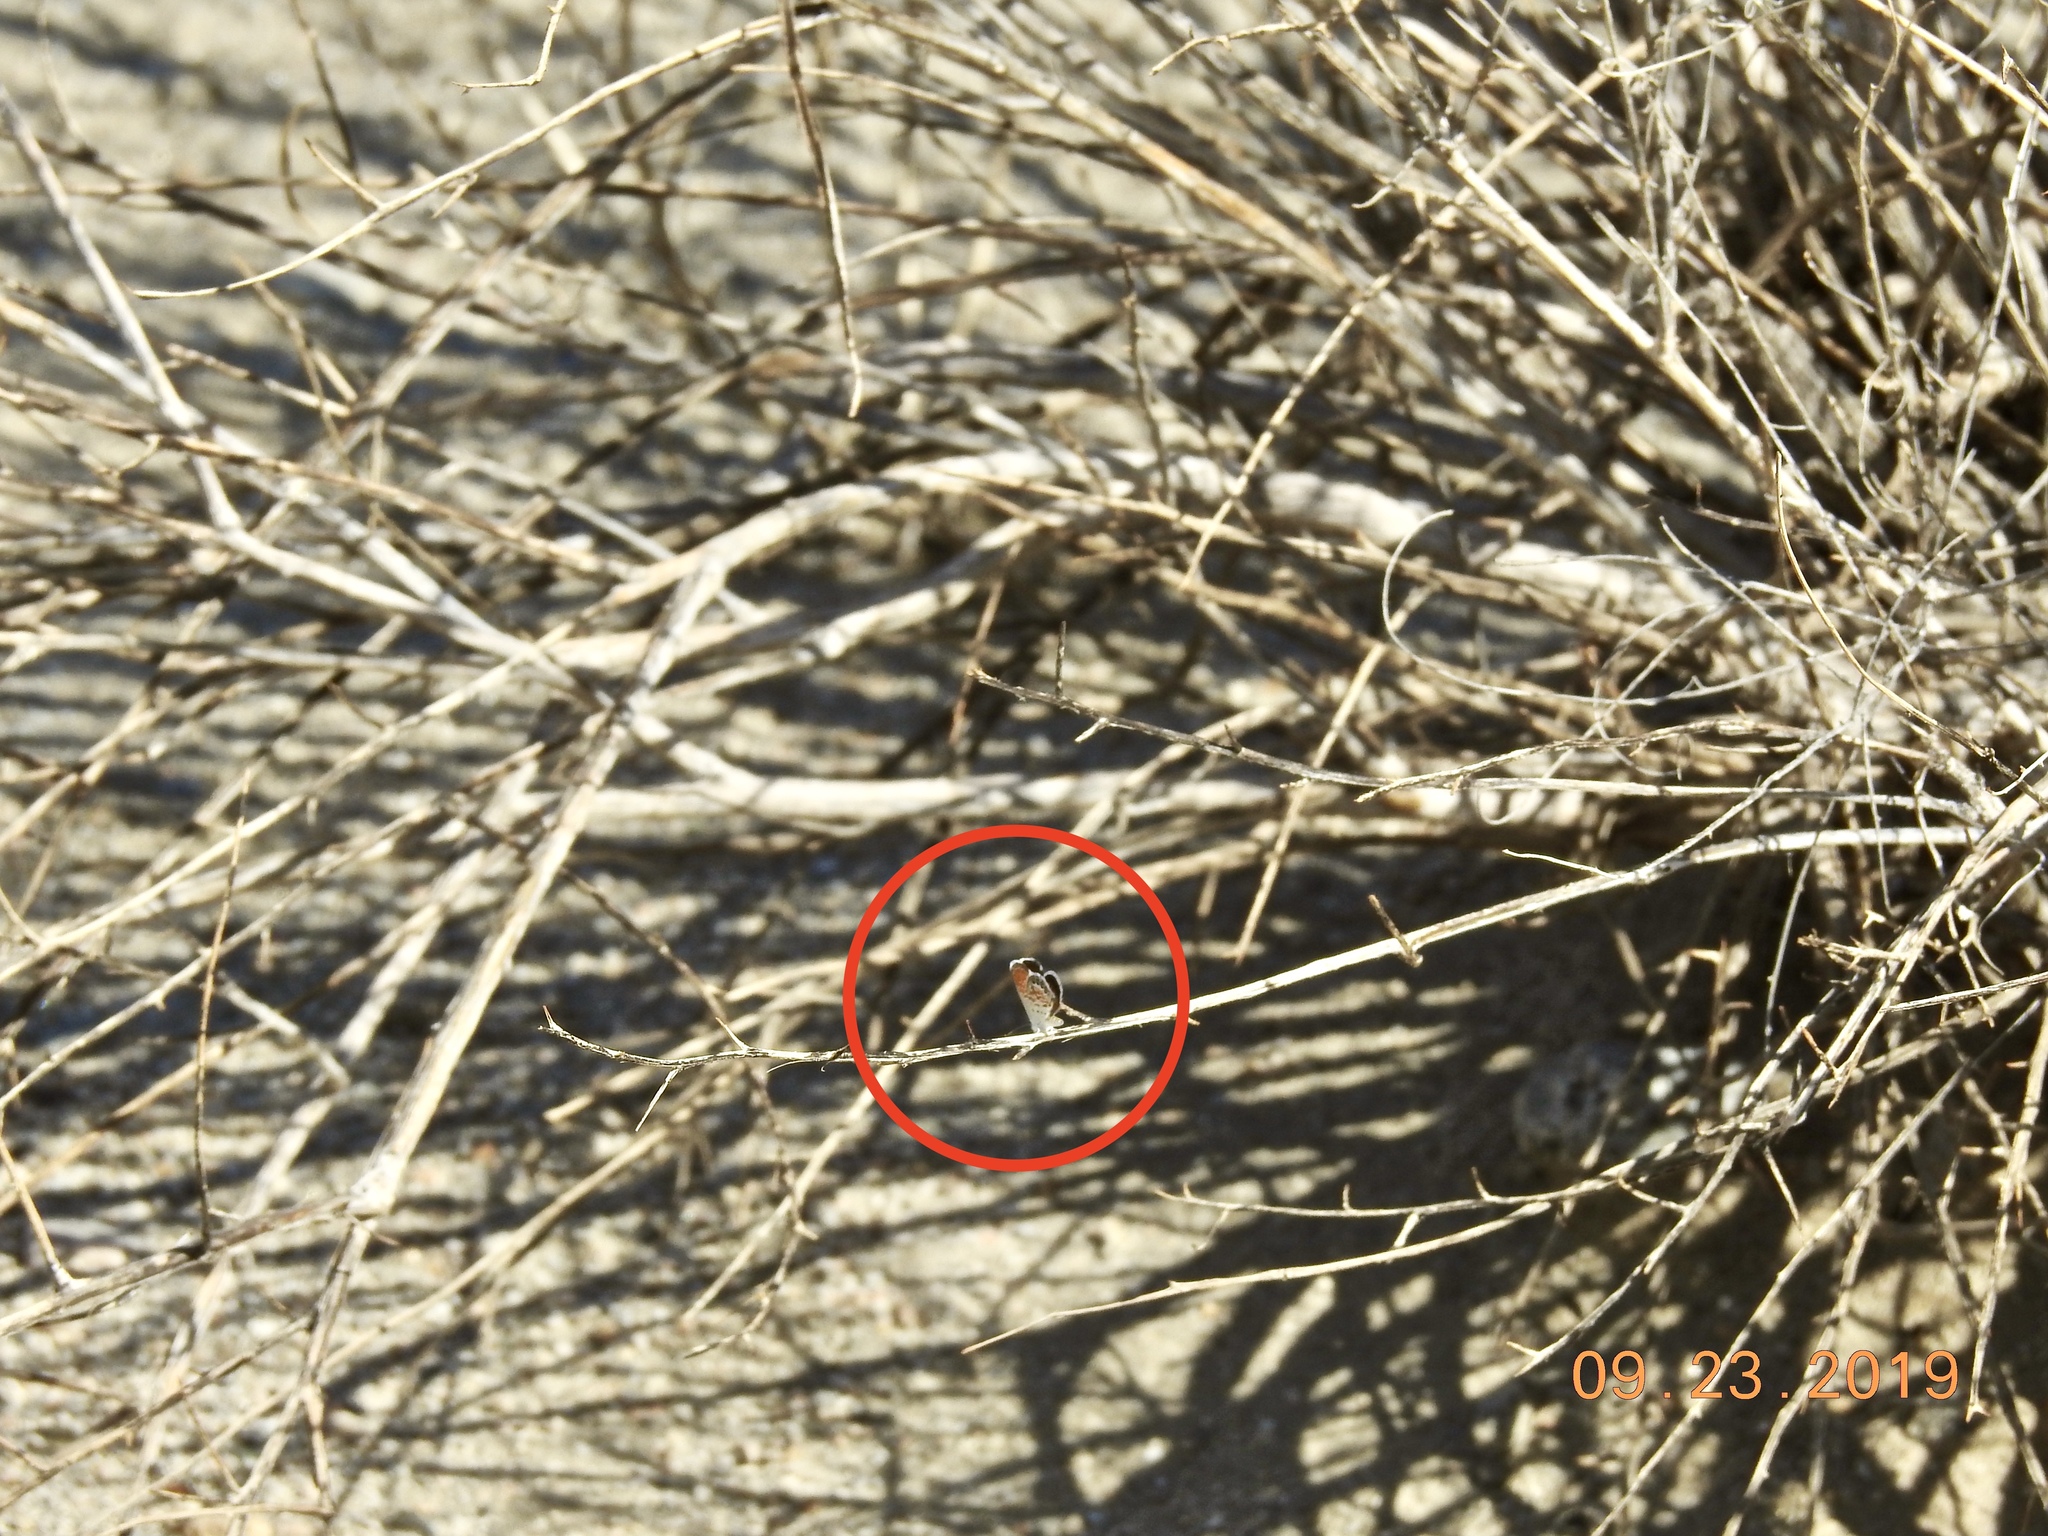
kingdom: Animalia
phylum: Arthropoda
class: Insecta
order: Lepidoptera
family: Lycaenidae
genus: Brephidium
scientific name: Brephidium exilis
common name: Pygmy blue
